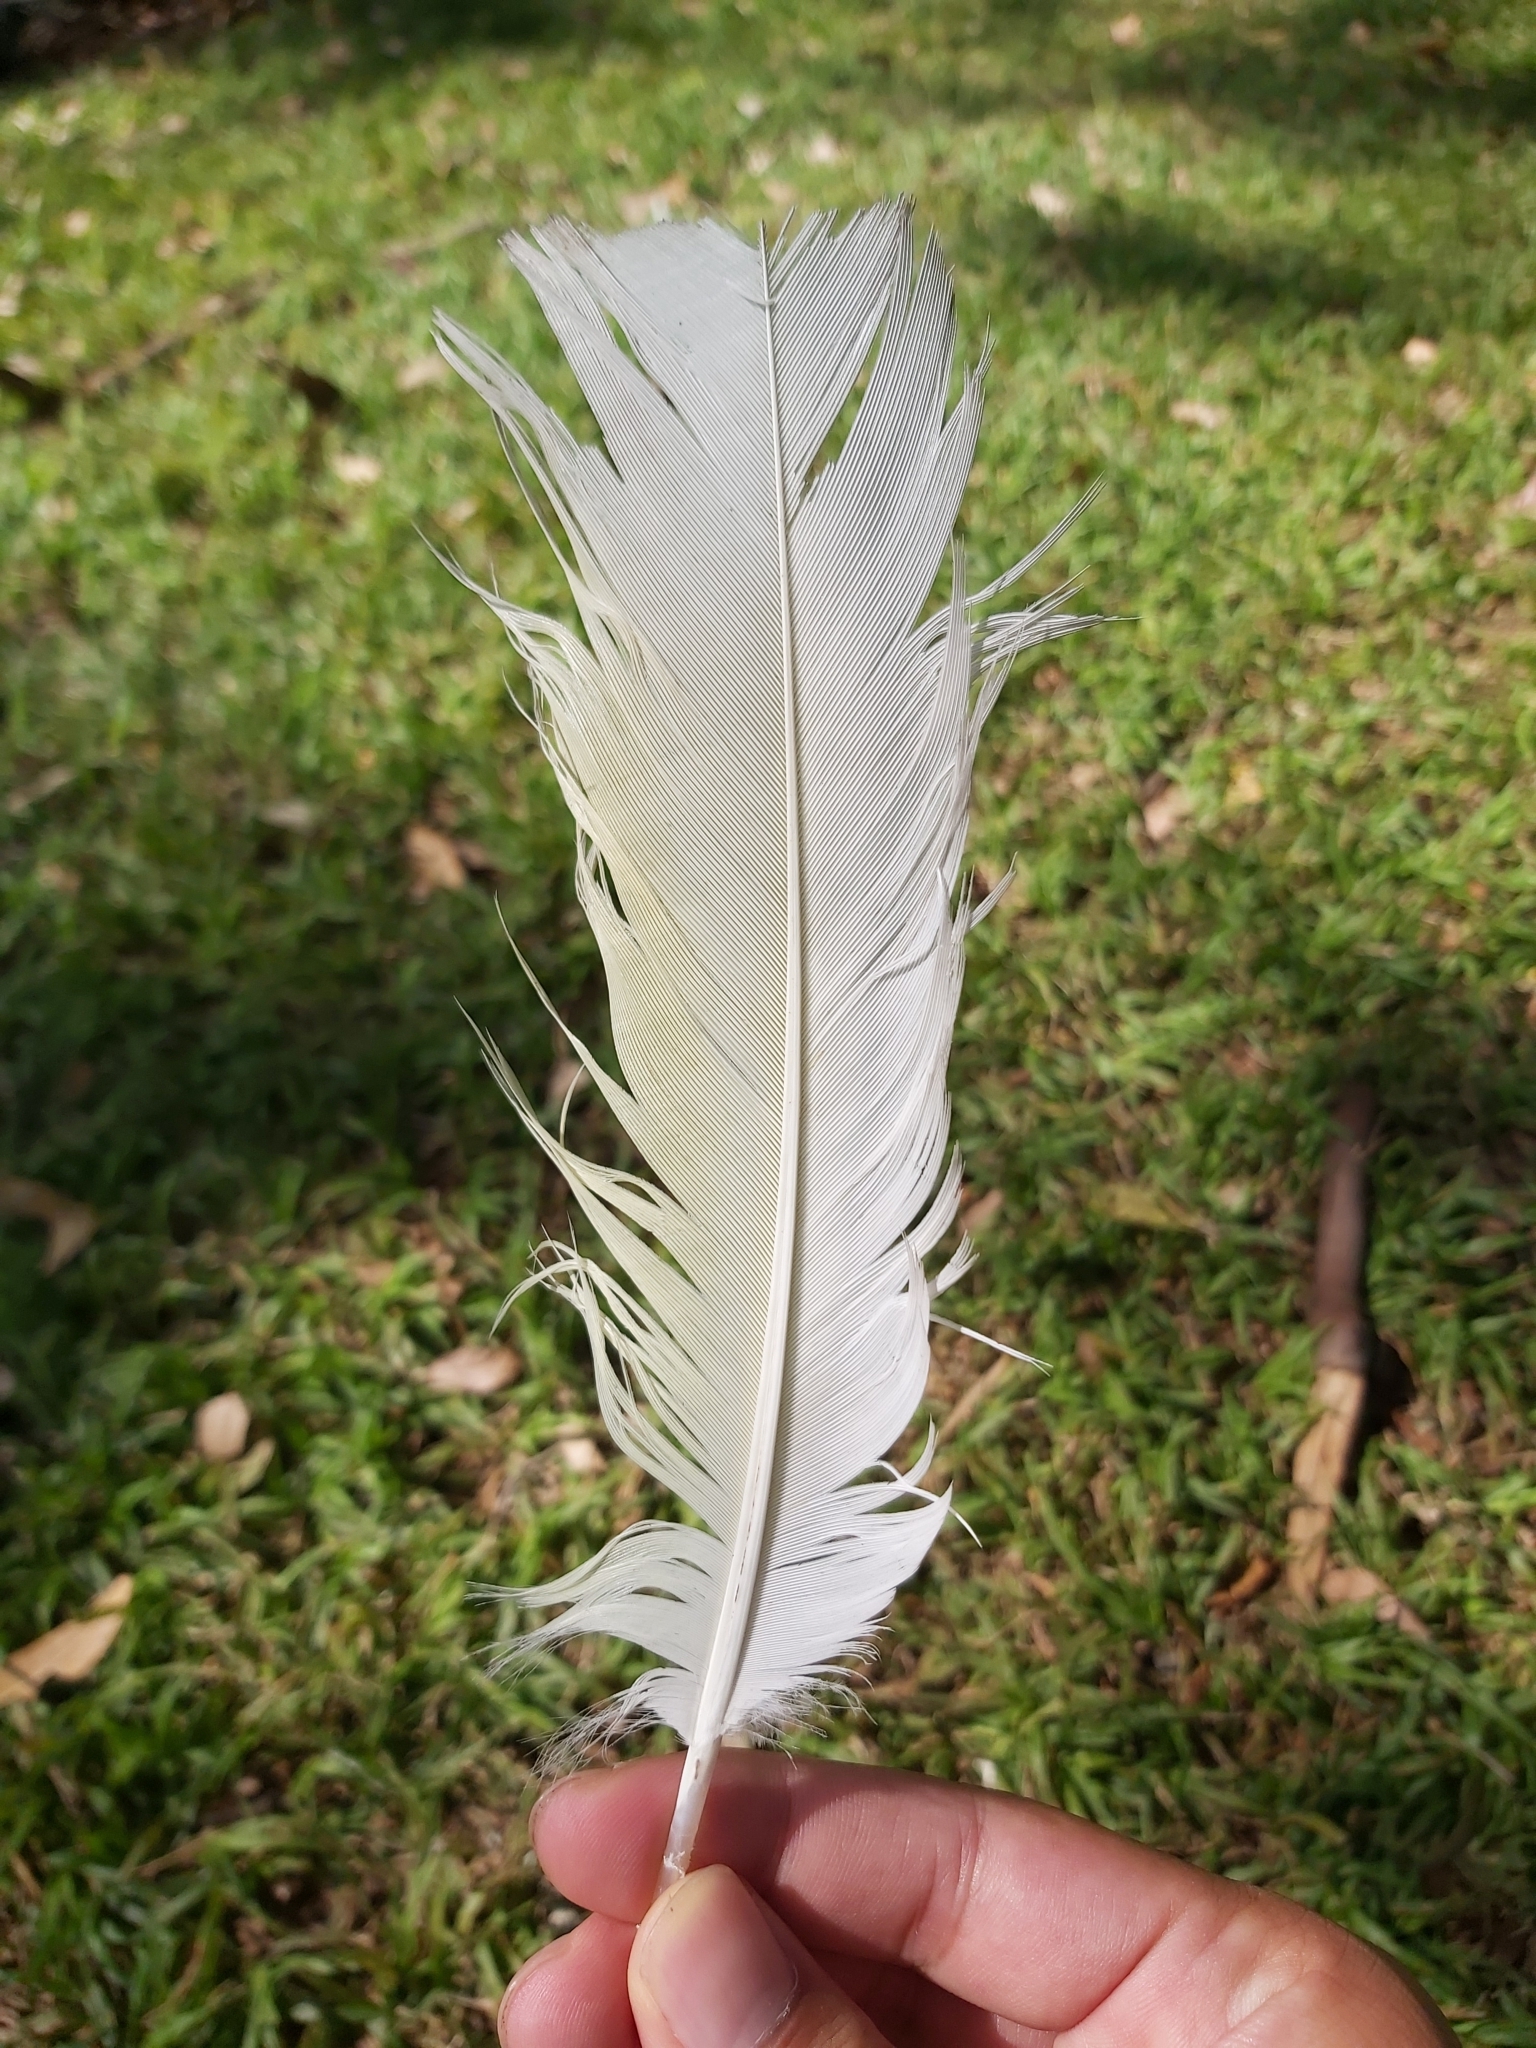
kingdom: Animalia
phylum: Chordata
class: Aves
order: Psittaciformes
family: Psittacidae
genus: Cacatua
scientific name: Cacatua galerita
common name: Sulphur-crested cockatoo
